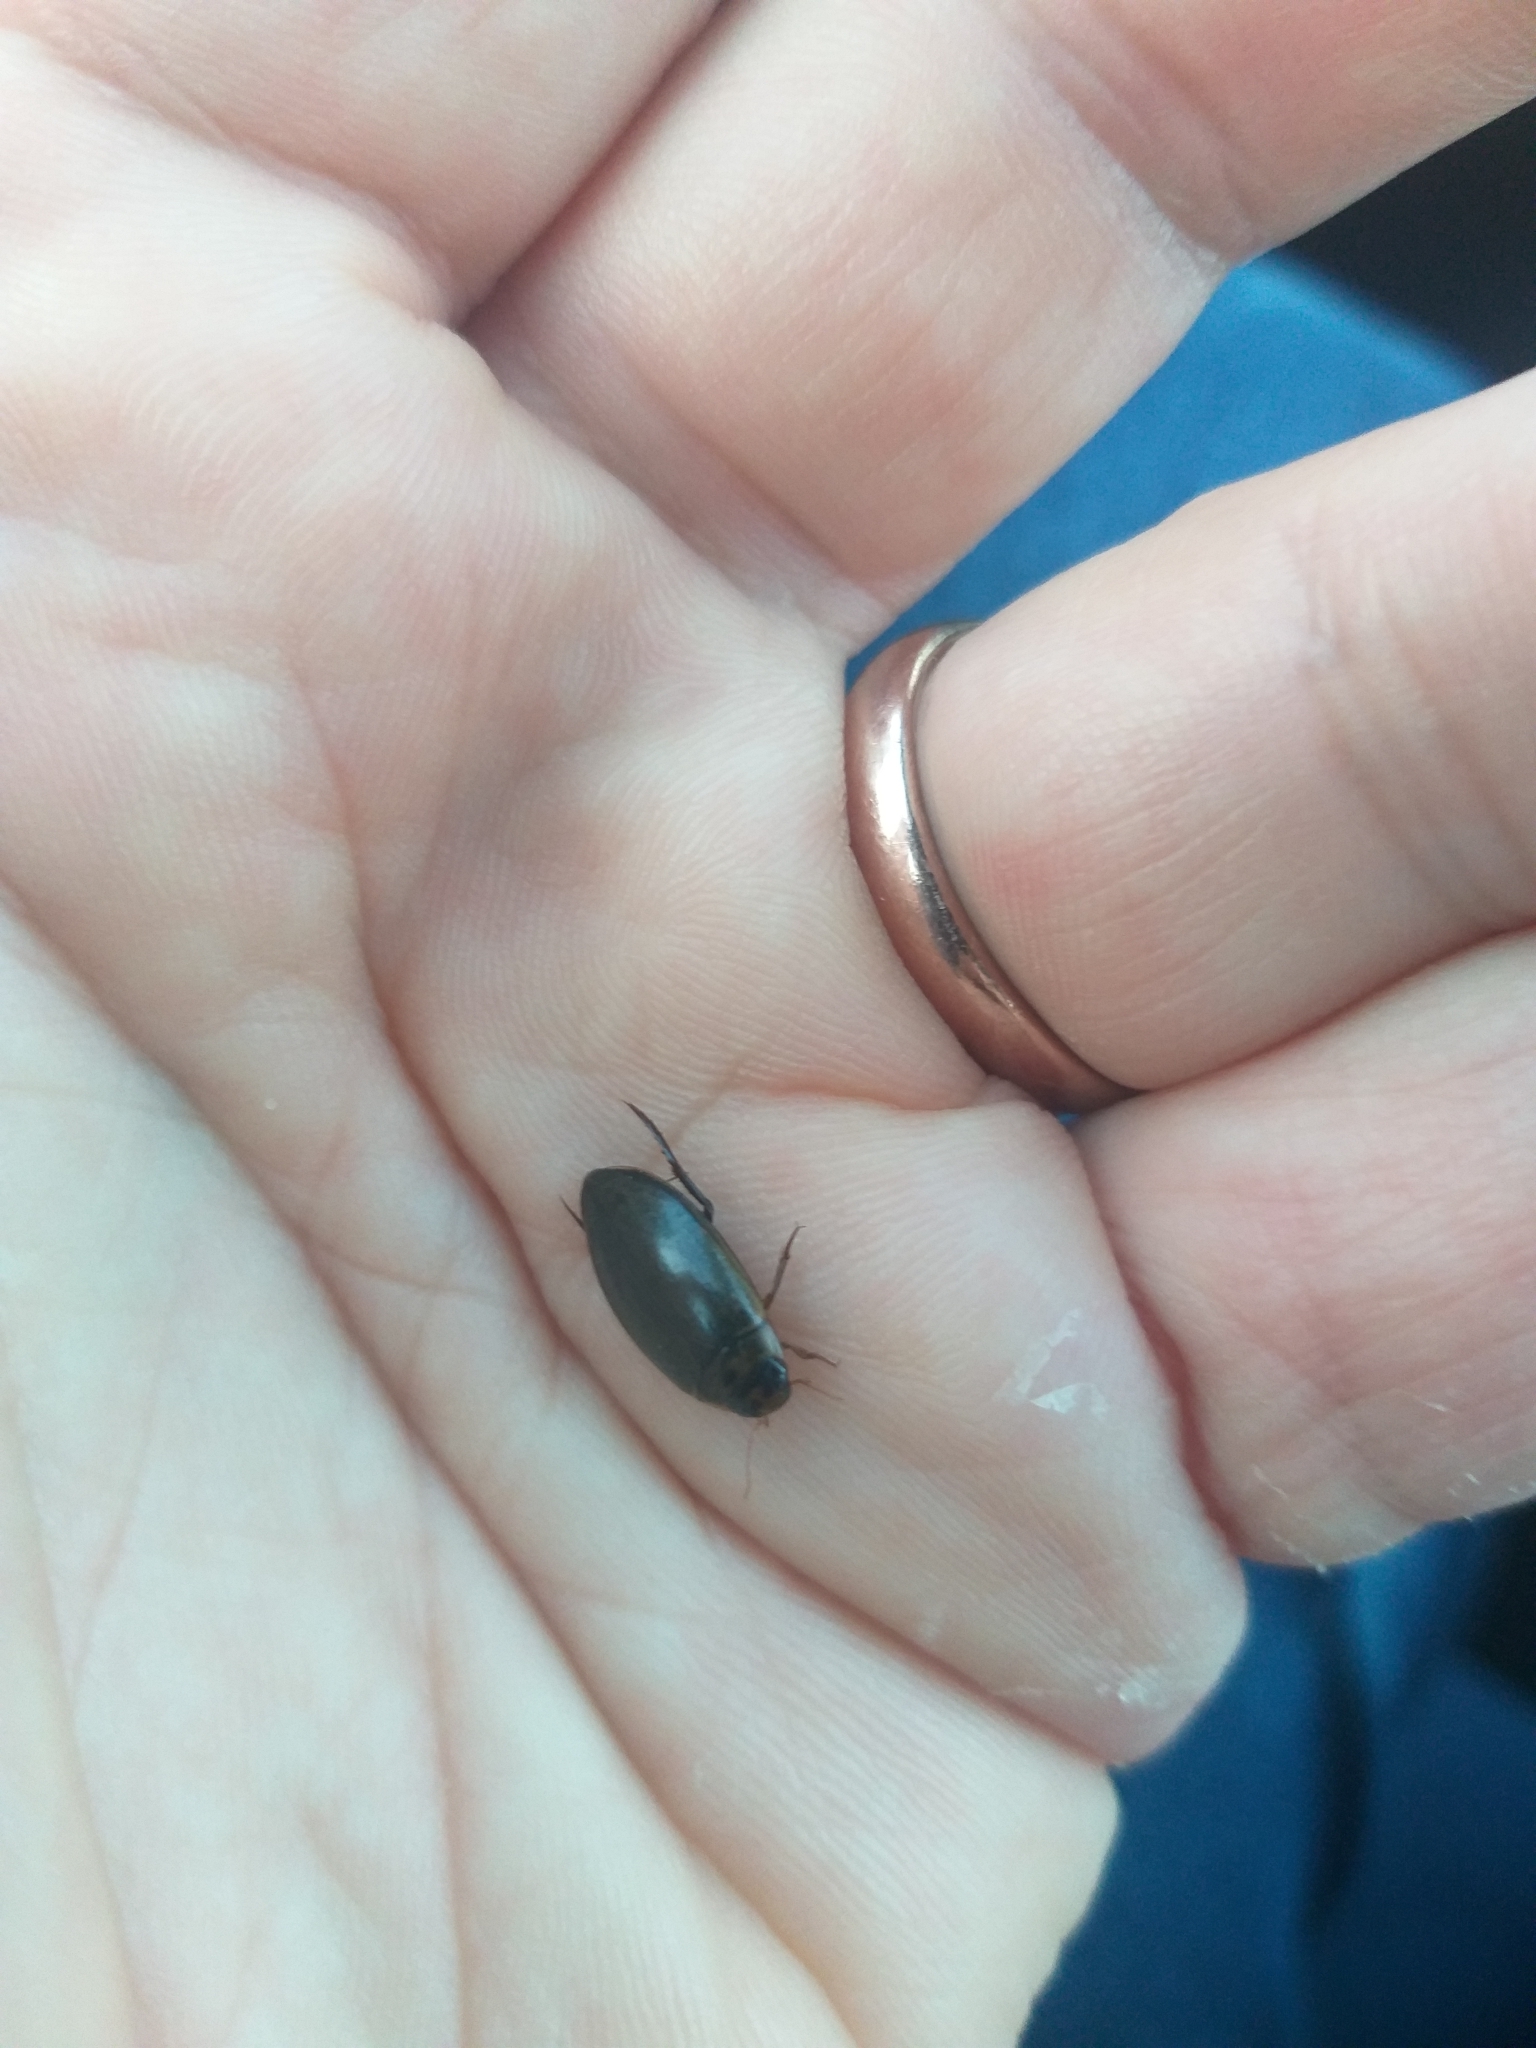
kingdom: Animalia
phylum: Arthropoda
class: Insecta
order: Coleoptera
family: Dytiscidae
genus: Rhantus
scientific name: Rhantus suturalis
